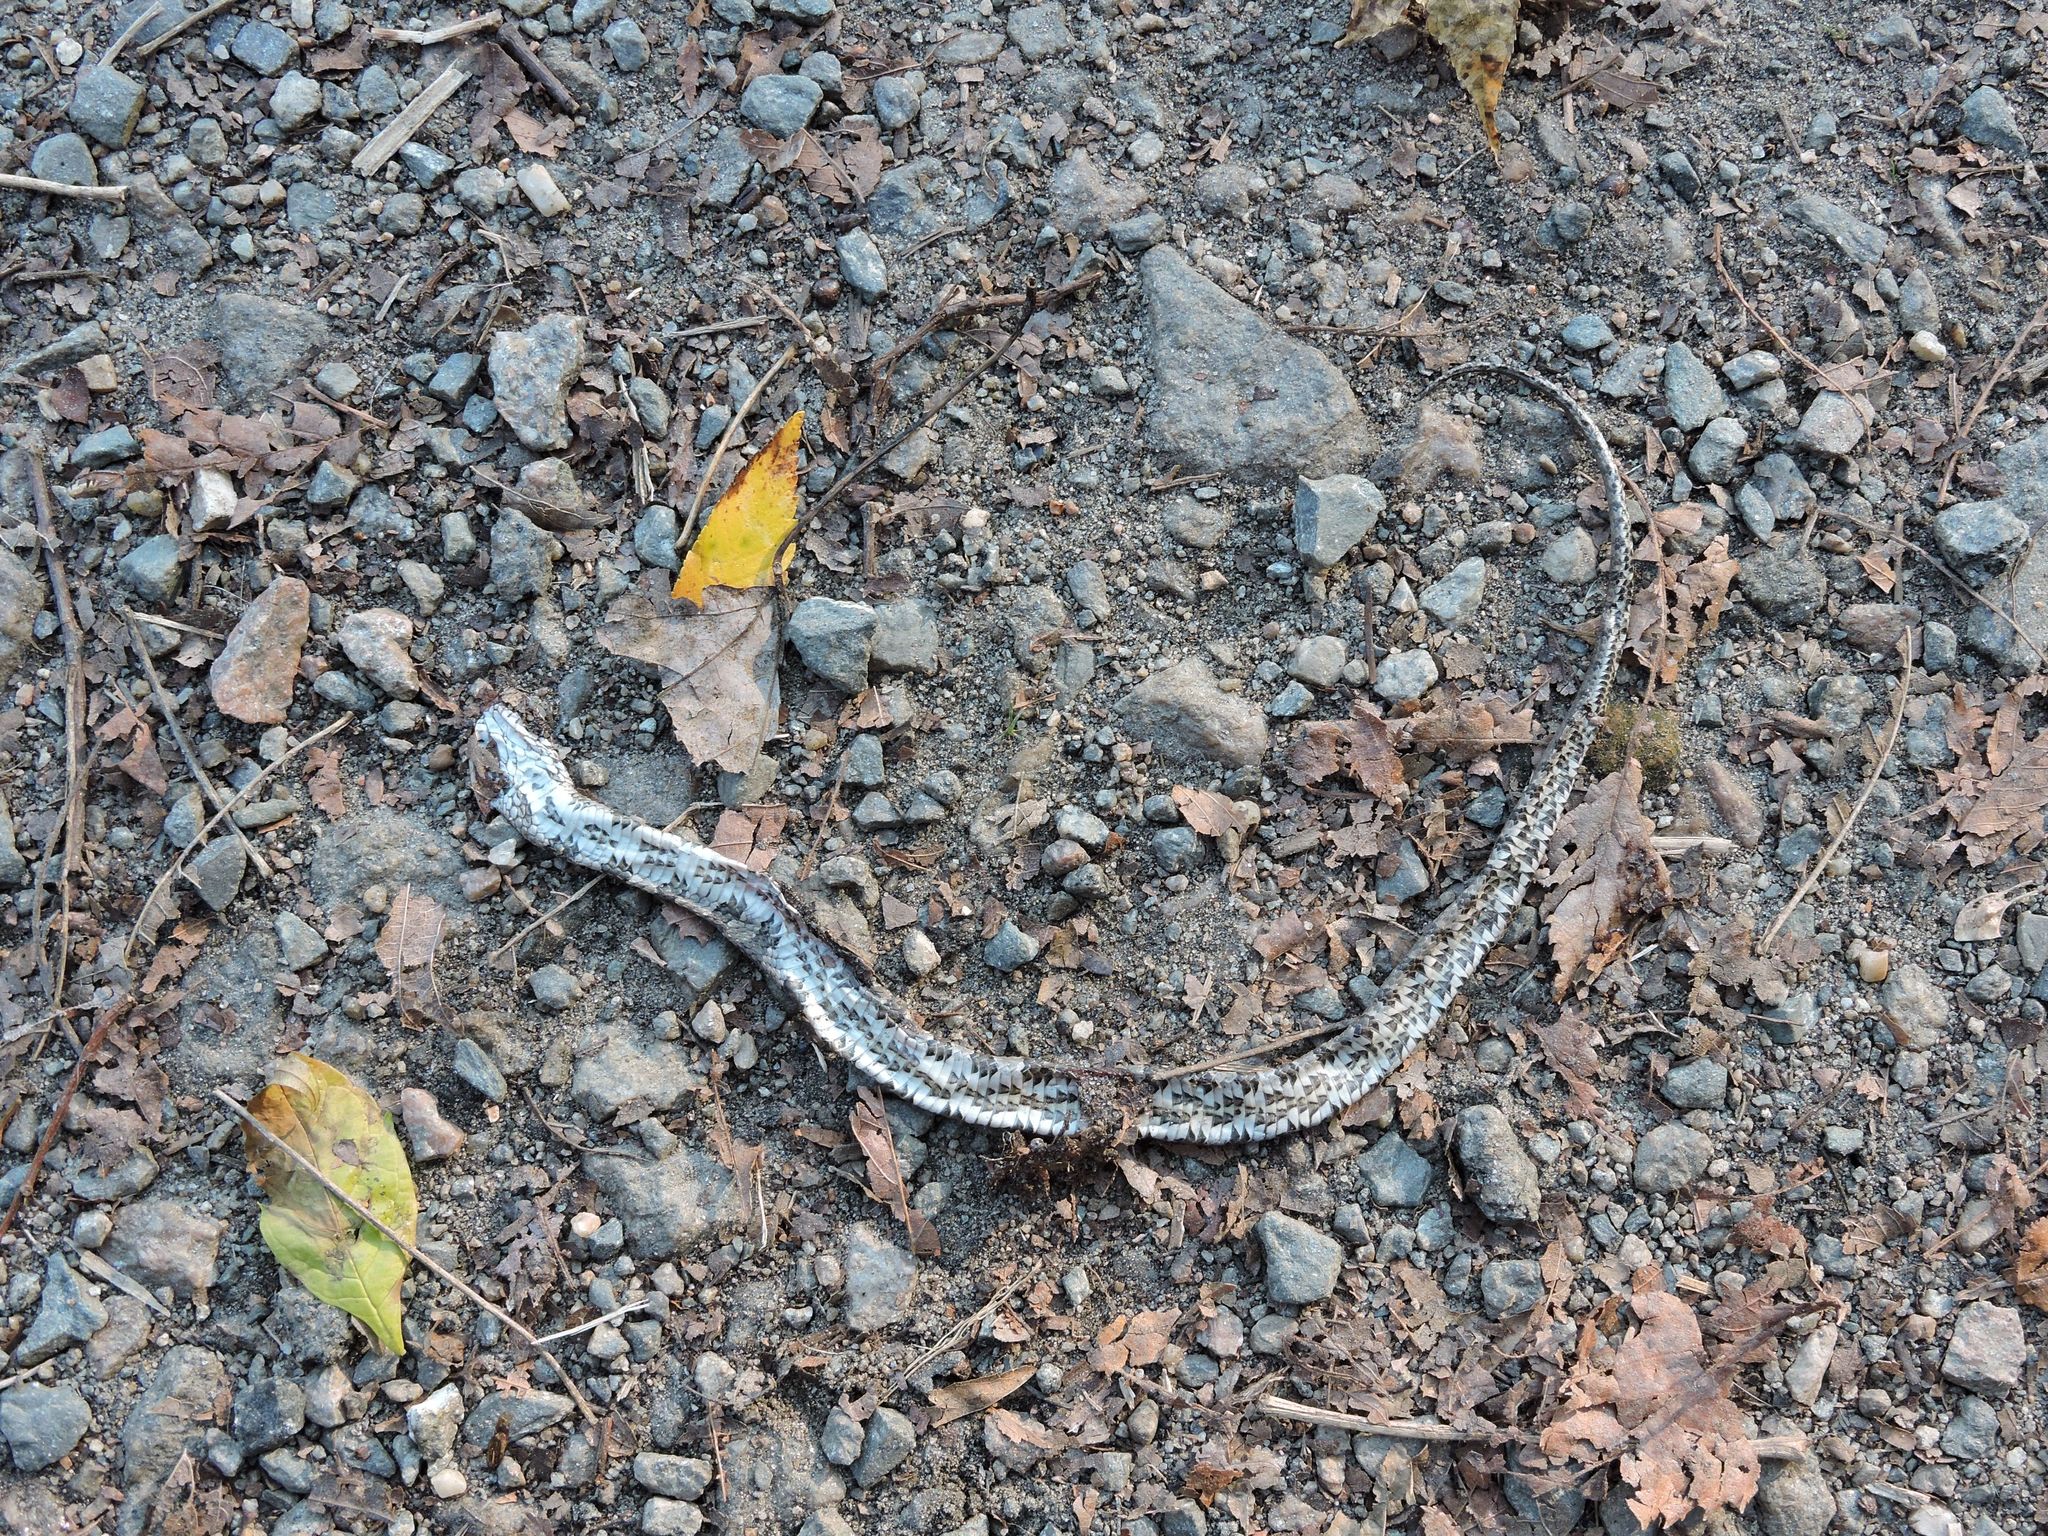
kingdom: Animalia
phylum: Chordata
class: Squamata
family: Colubridae
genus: Nerodia
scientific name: Nerodia sipedon
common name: Northern water snake
